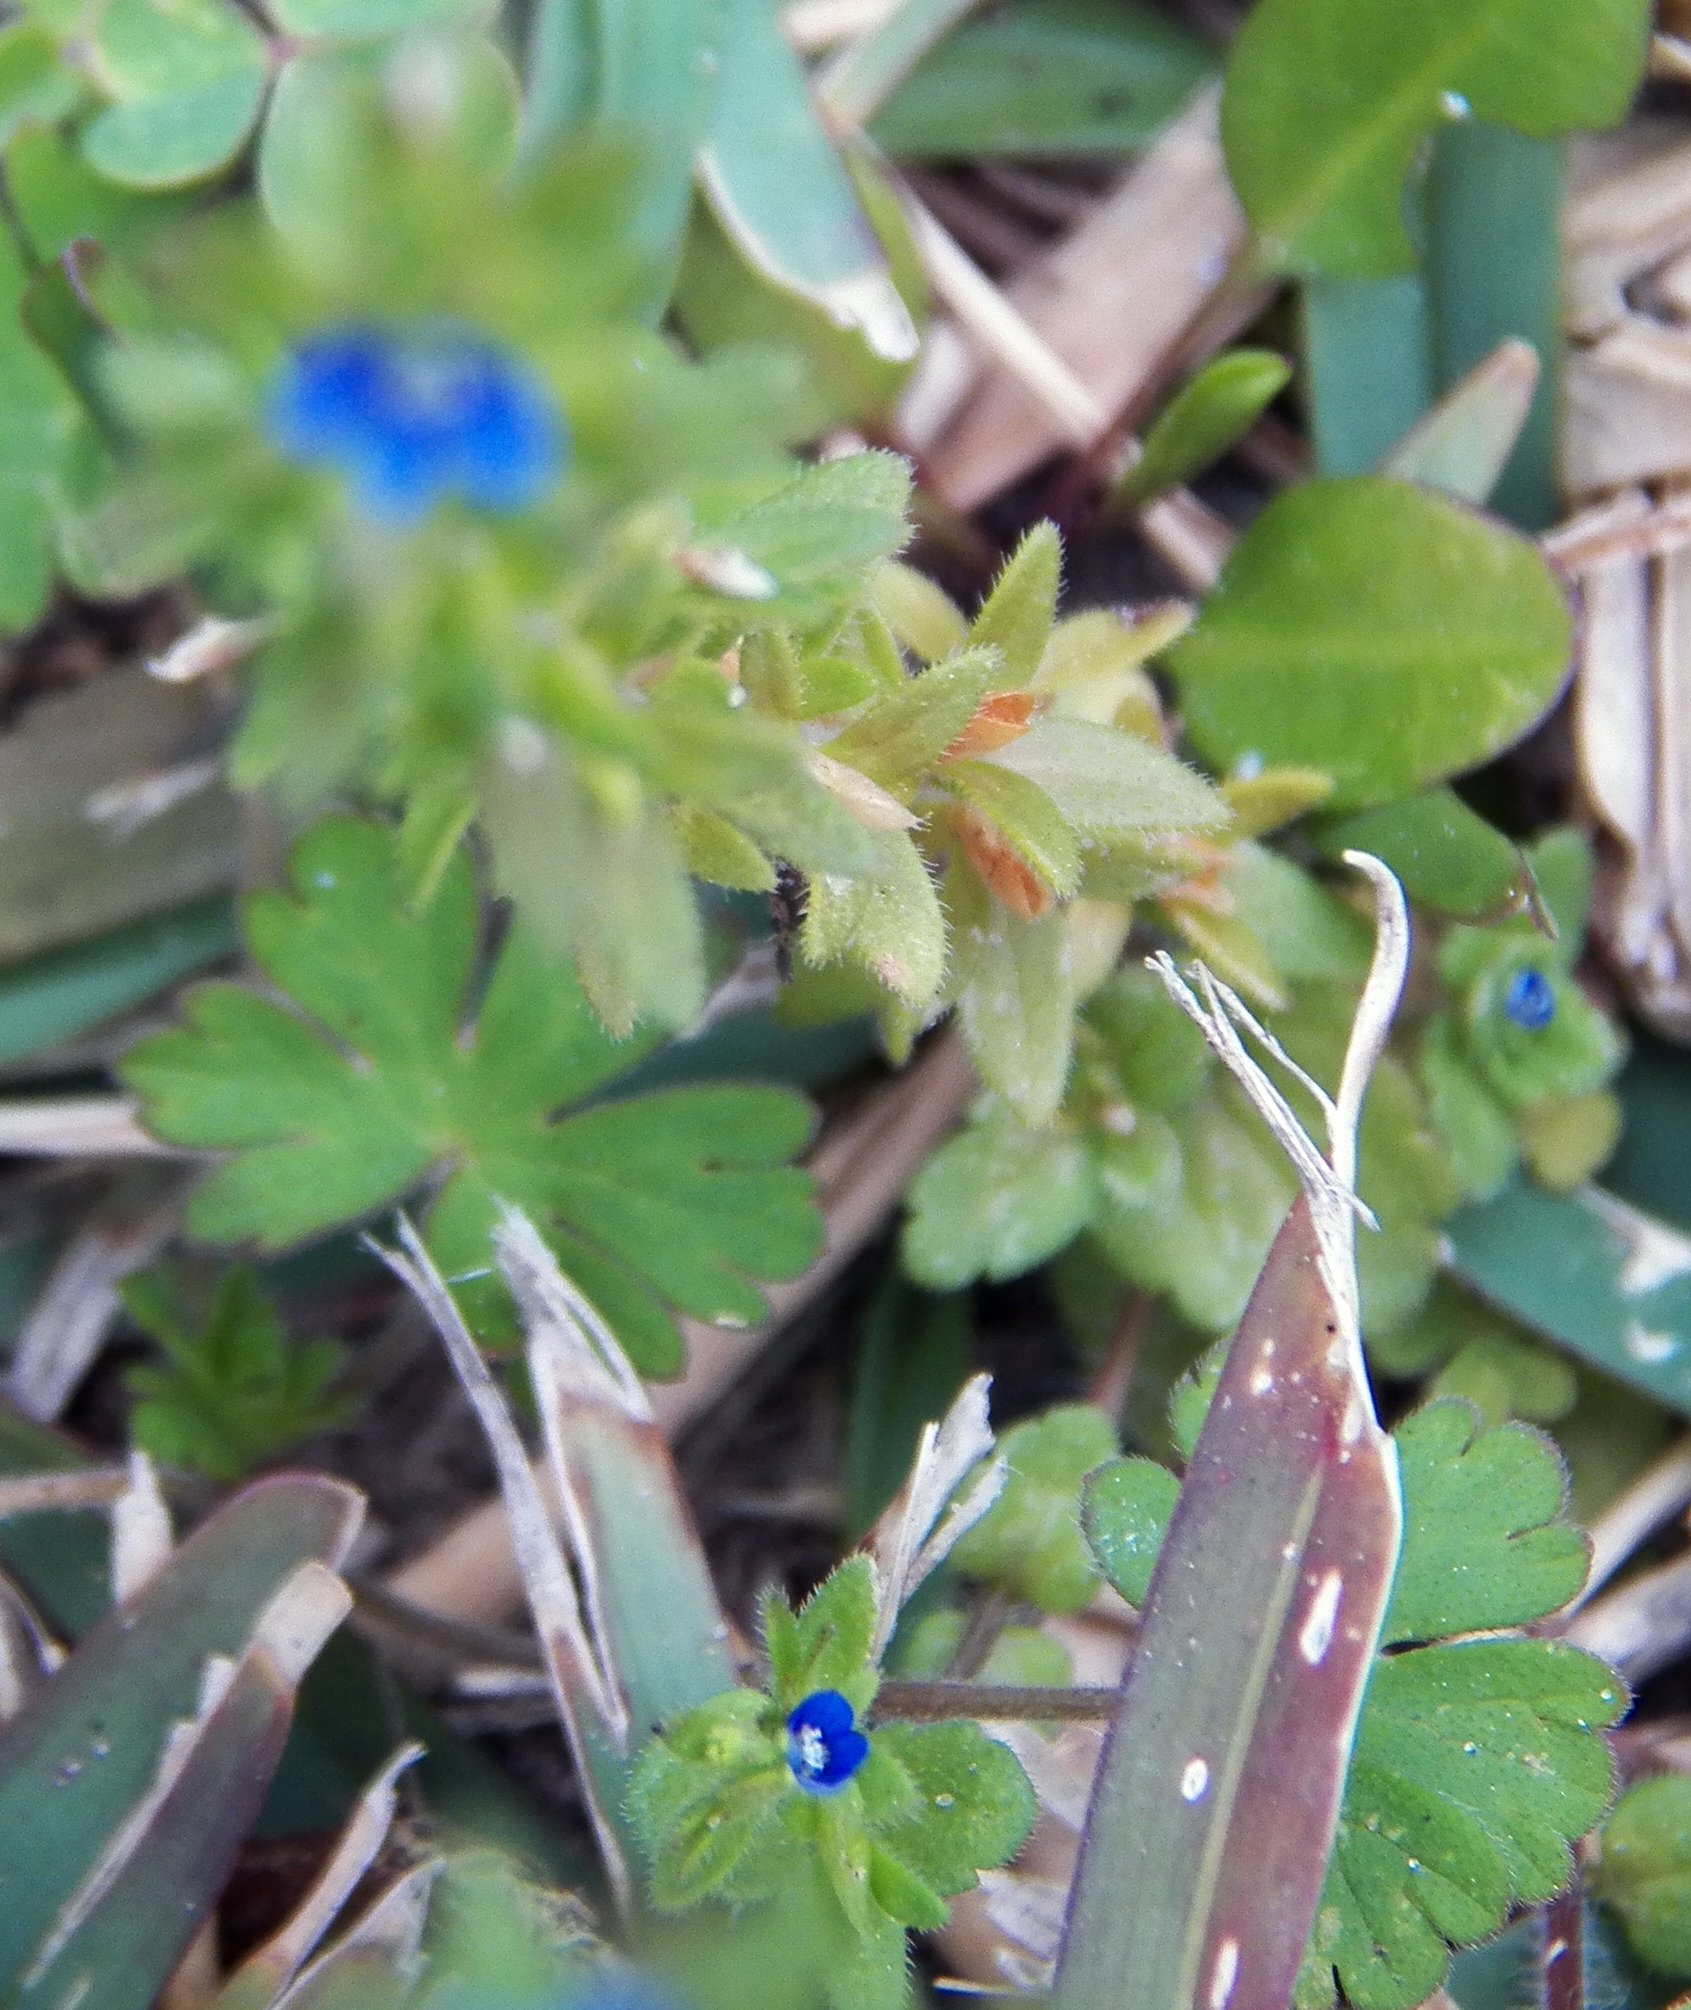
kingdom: Plantae
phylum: Tracheophyta
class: Magnoliopsida
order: Lamiales
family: Plantaginaceae
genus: Veronica
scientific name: Veronica arvensis
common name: Corn speedwell
